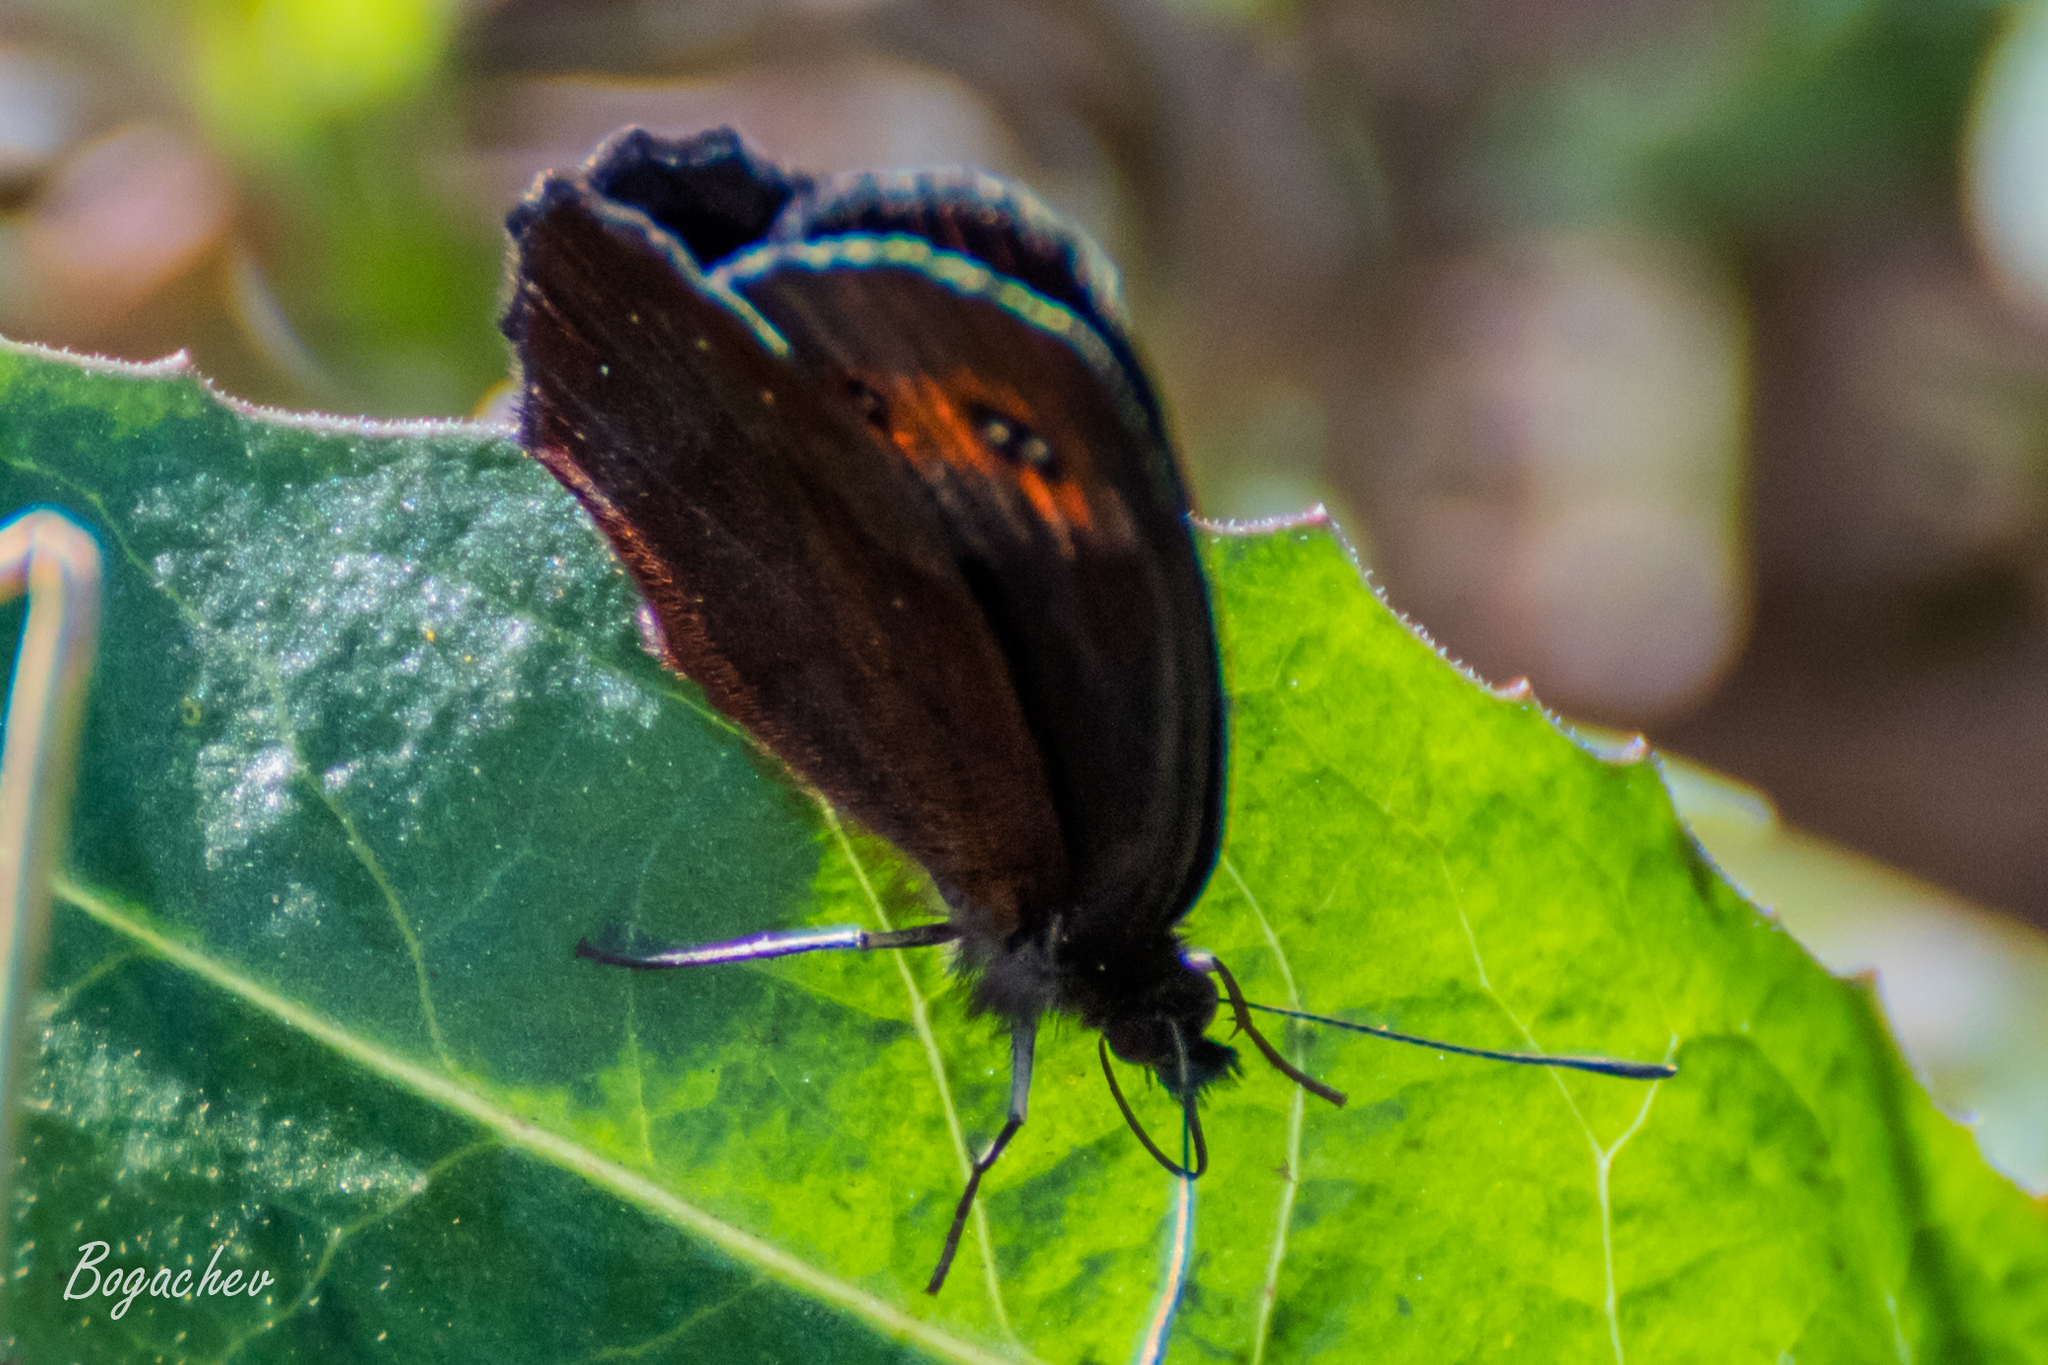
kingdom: Animalia
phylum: Arthropoda
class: Insecta
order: Lepidoptera
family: Nymphalidae
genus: Erebia
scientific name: Erebia aethiops
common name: Scotch argus
